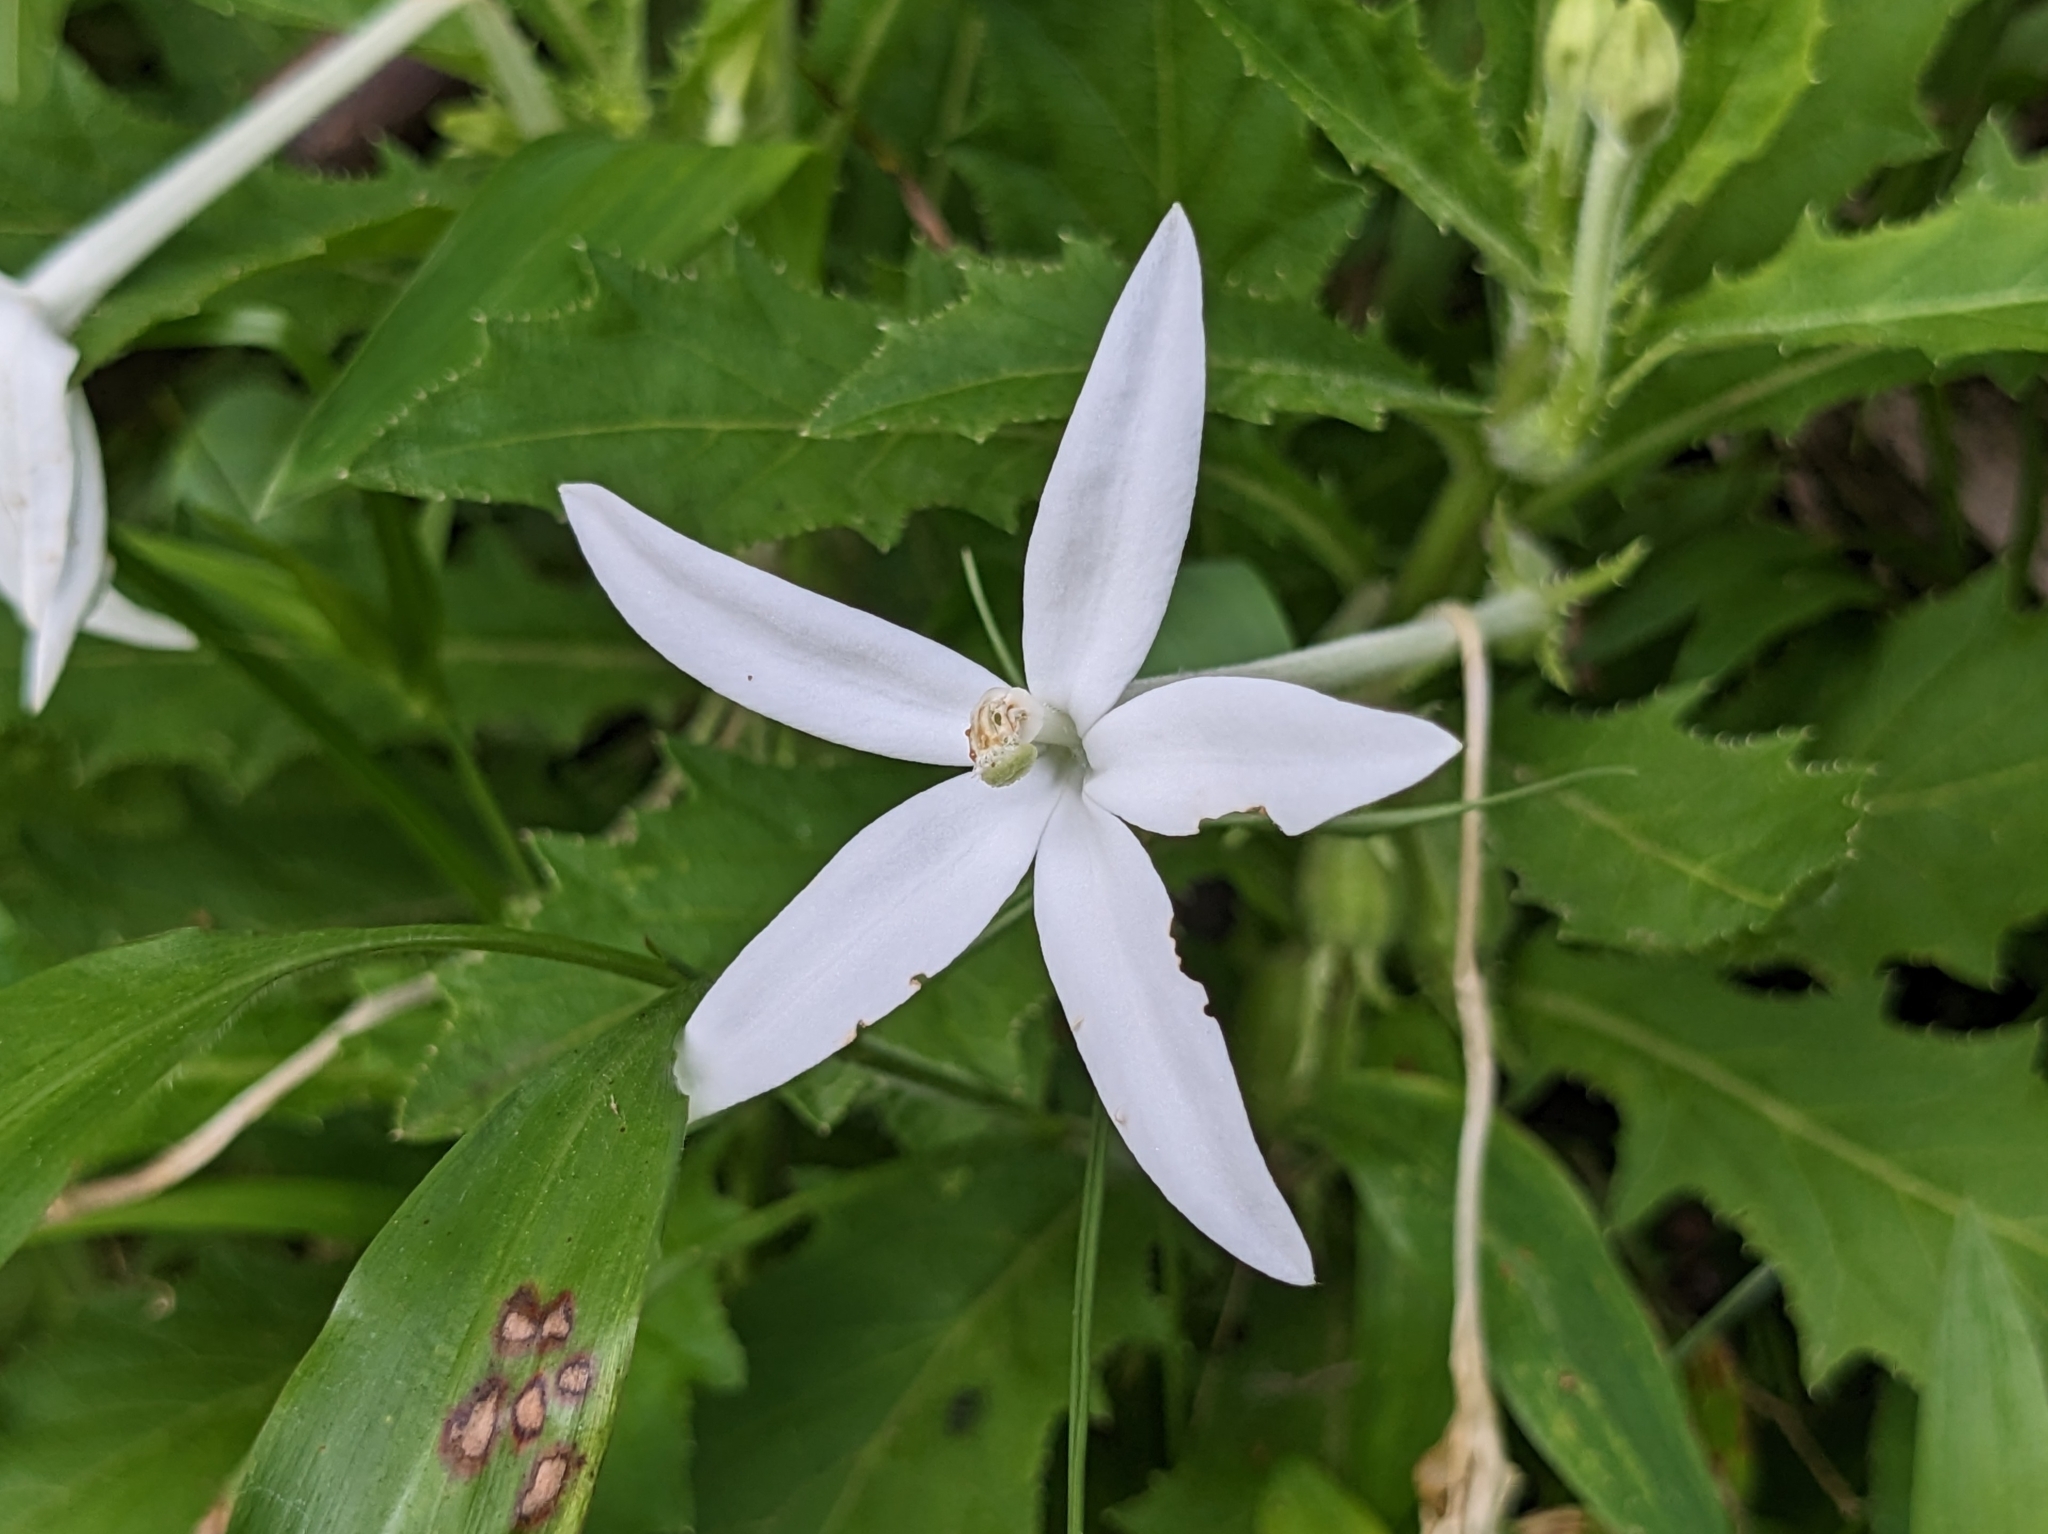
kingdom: Plantae
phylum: Tracheophyta
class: Magnoliopsida
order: Asterales
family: Campanulaceae
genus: Hippobroma
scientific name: Hippobroma longiflora
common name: Madamfate
